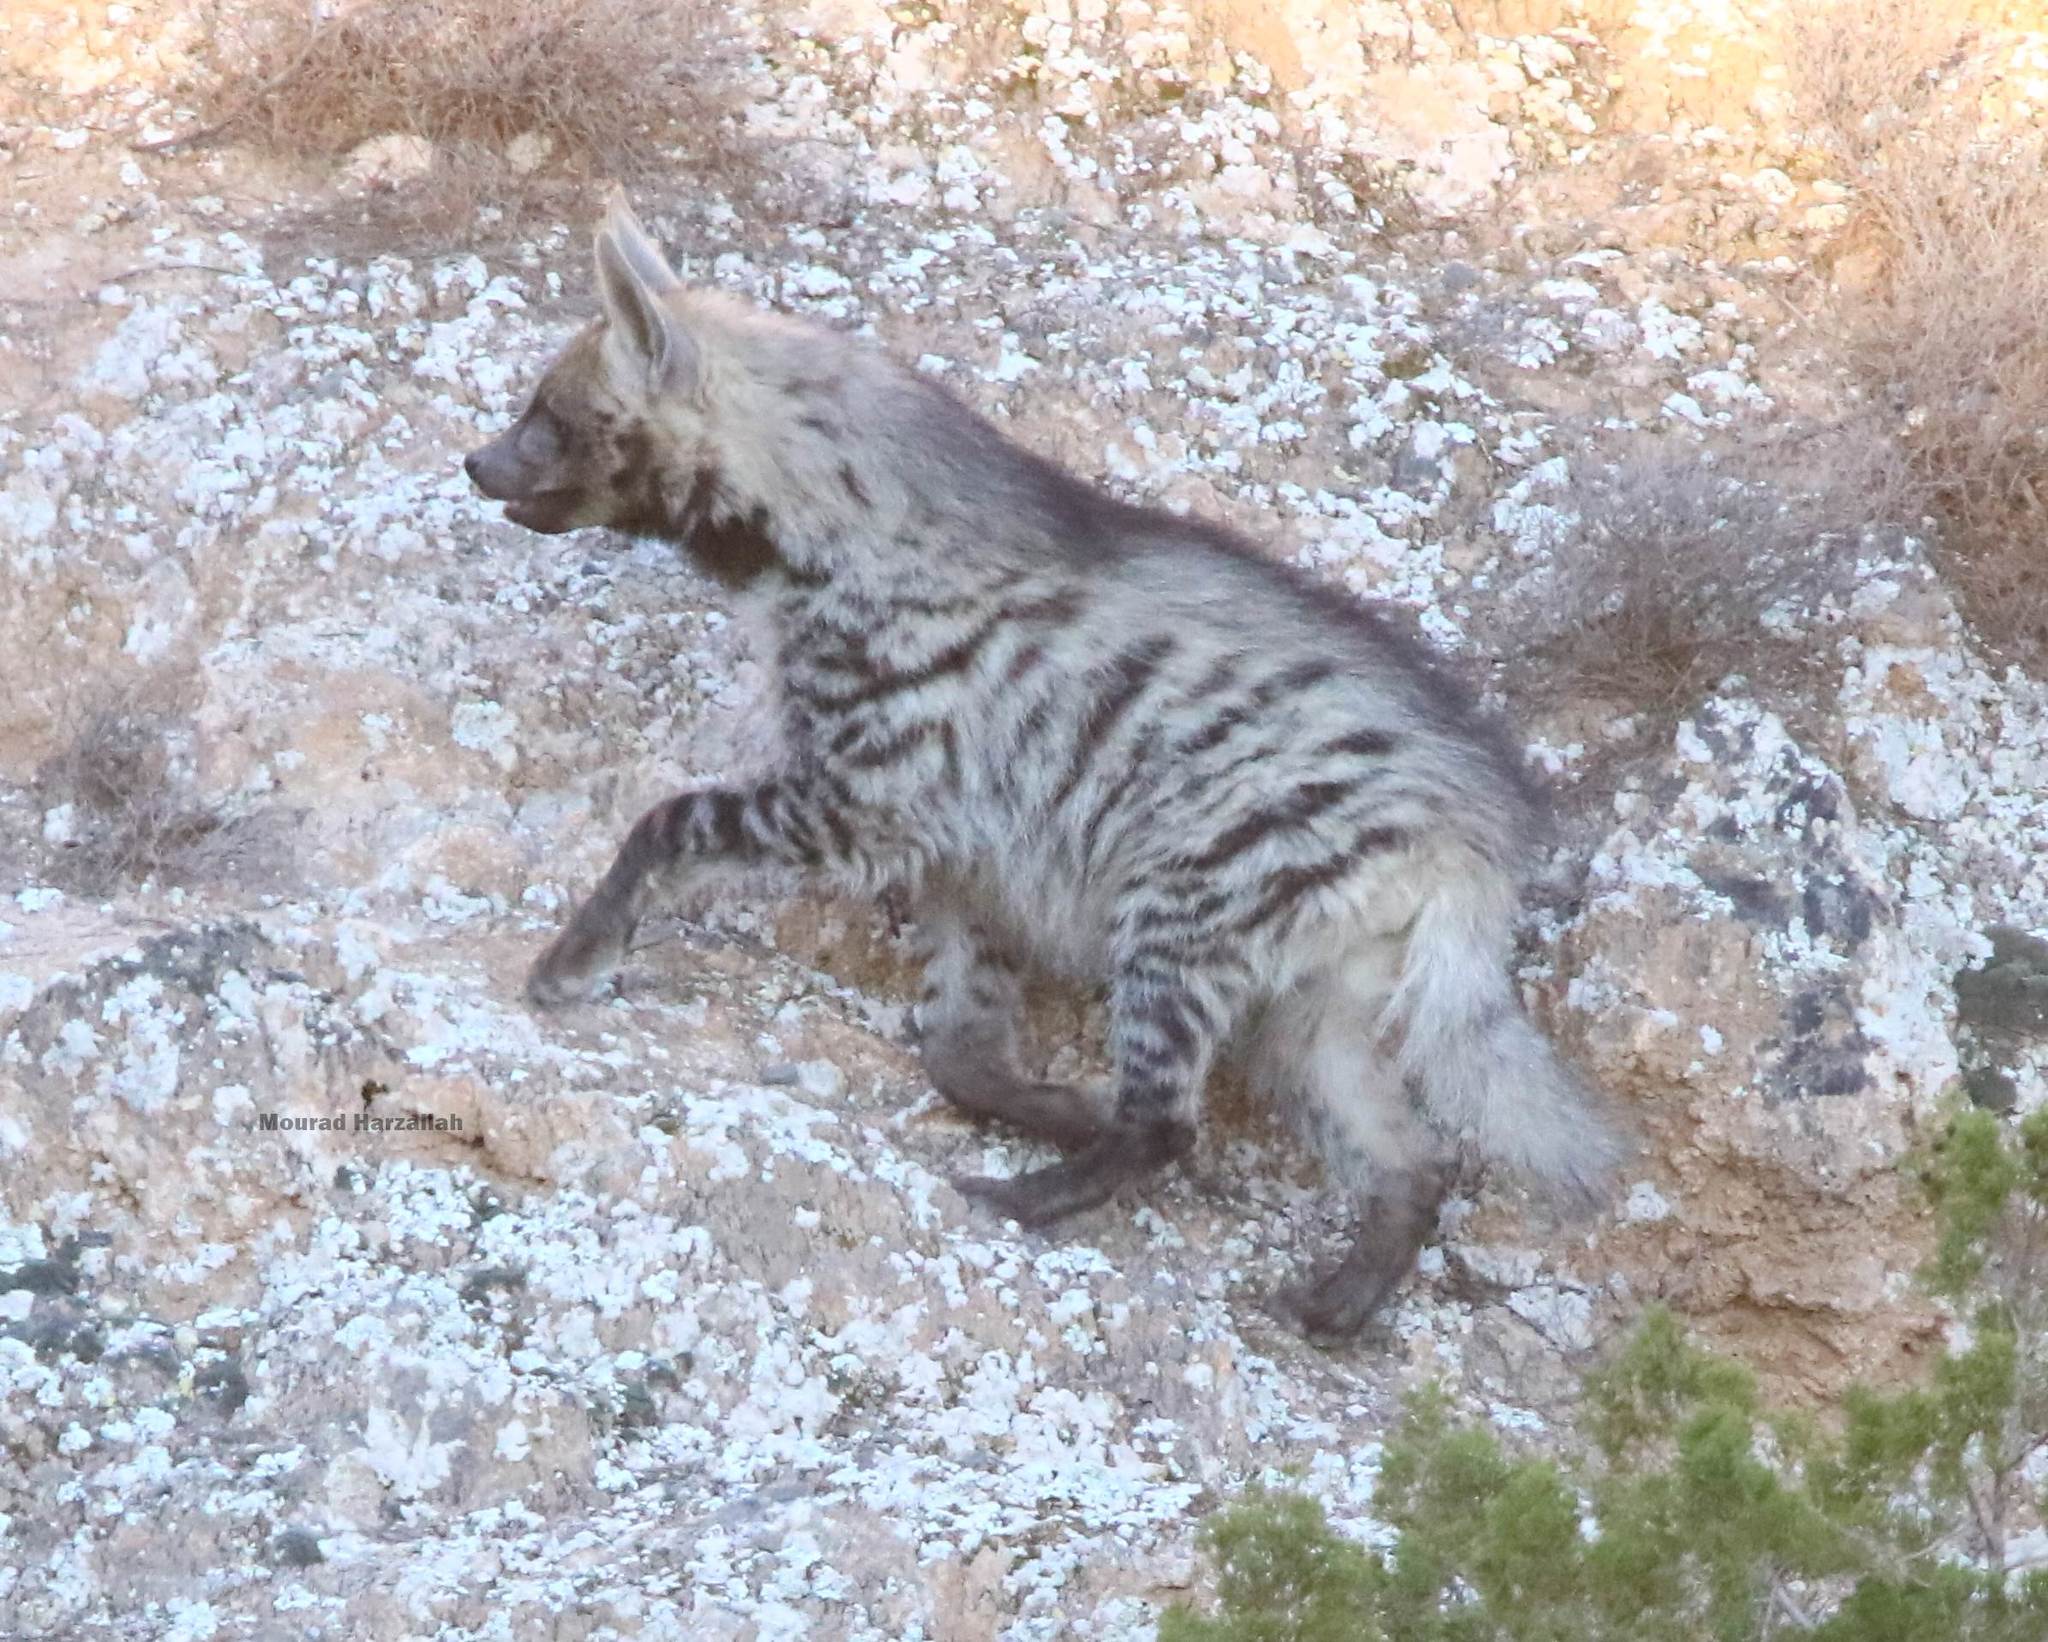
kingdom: Animalia
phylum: Chordata
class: Mammalia
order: Carnivora
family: Hyaenidae
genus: Hyaena
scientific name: Hyaena hyaena
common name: Striped hyaena
